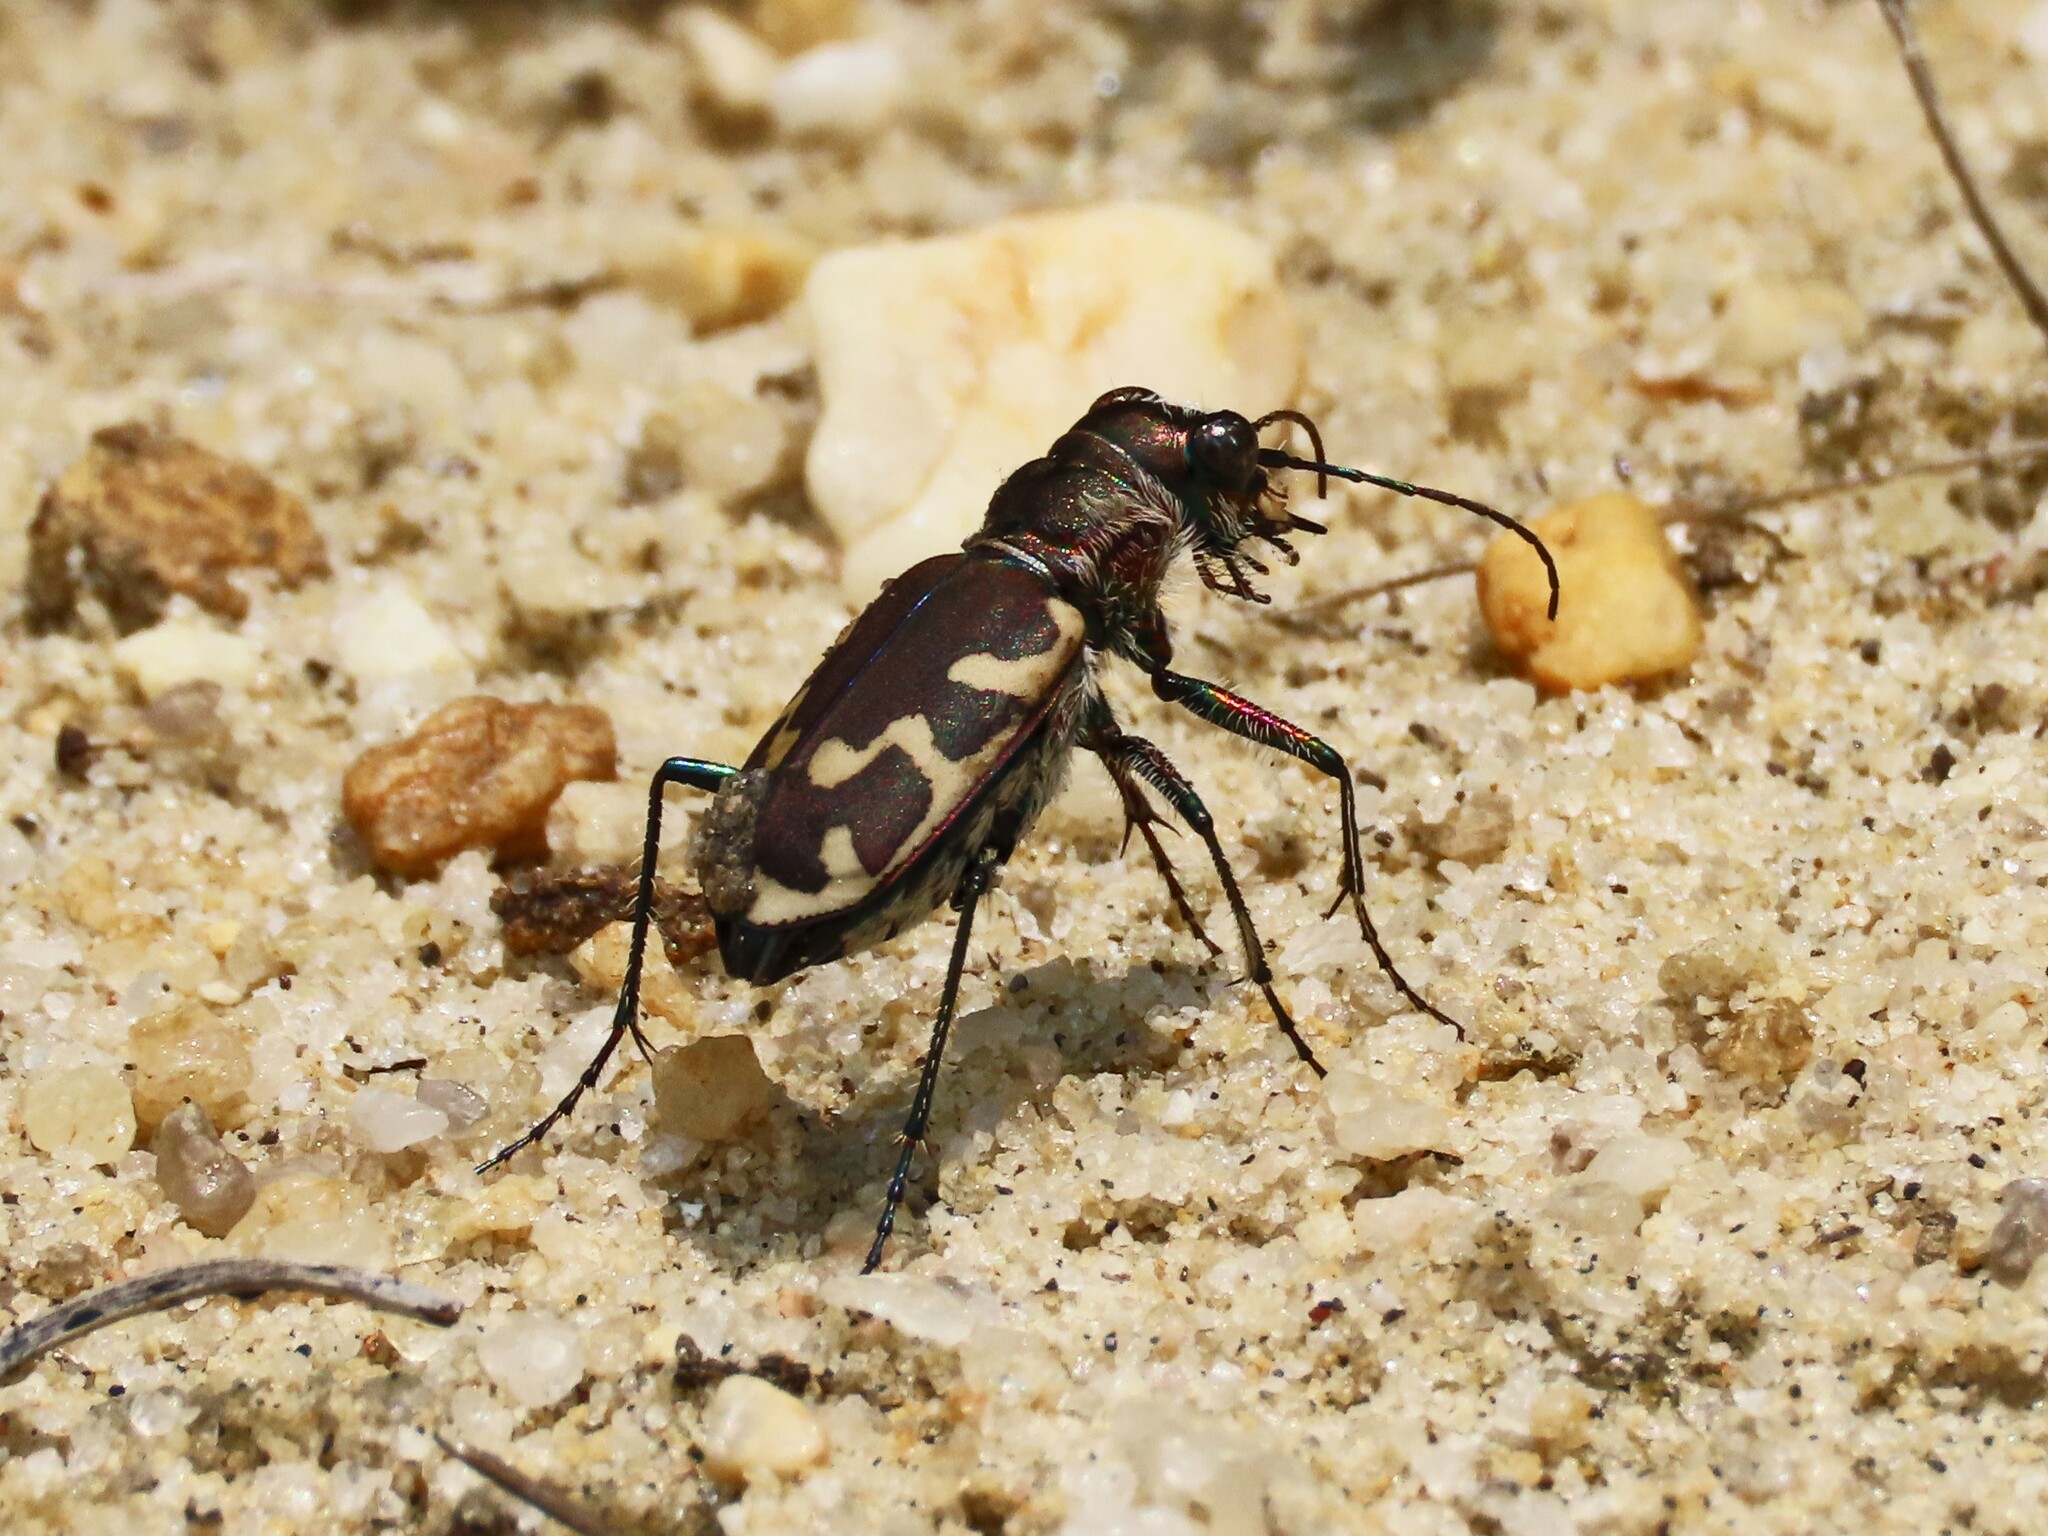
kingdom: Animalia
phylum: Arthropoda
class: Insecta
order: Coleoptera
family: Carabidae
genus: Cicindela
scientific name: Cicindela formosa
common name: Big sand tiger beetle
